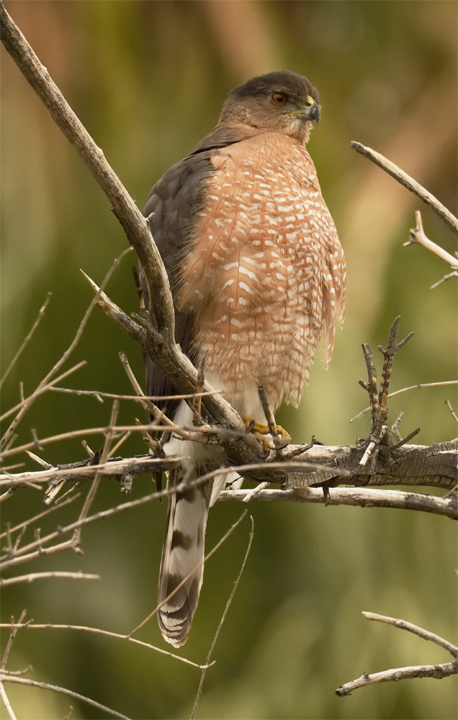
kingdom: Animalia
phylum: Chordata
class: Aves
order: Accipitriformes
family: Accipitridae
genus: Accipiter
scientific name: Accipiter cooperii
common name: Cooper's hawk
